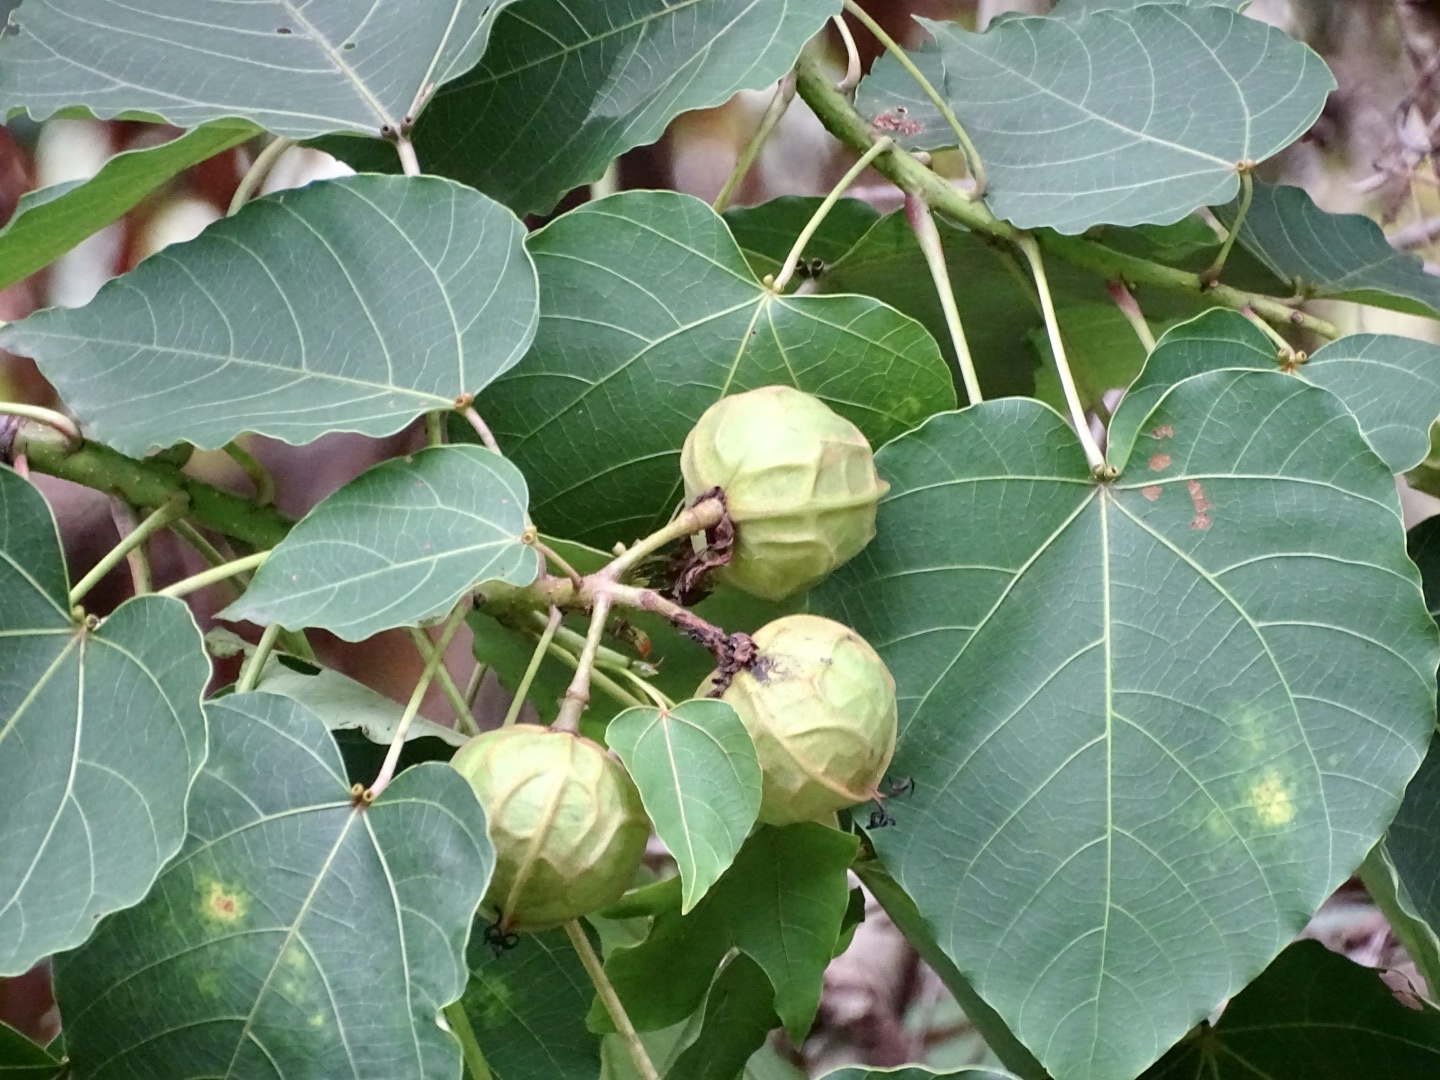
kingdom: Plantae
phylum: Tracheophyta
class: Magnoliopsida
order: Malpighiales
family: Euphorbiaceae
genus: Vernicia
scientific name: Vernicia montana
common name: Mu oil tree
